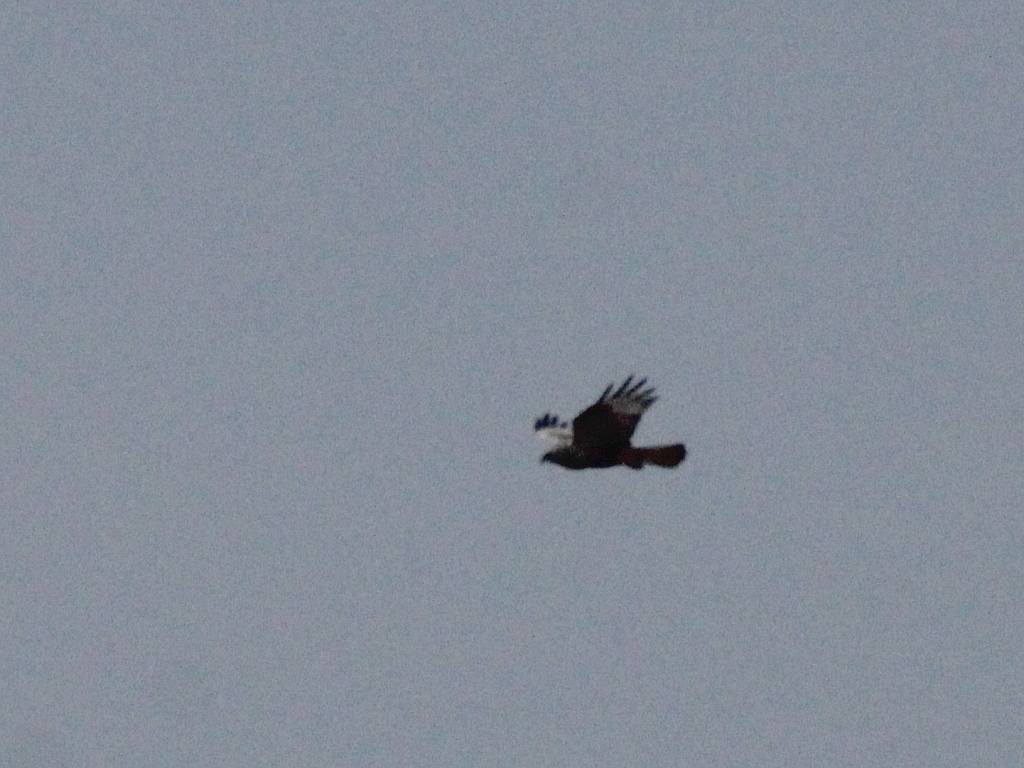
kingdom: Animalia
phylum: Chordata
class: Aves
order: Accipitriformes
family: Accipitridae
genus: Buteo
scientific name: Buteo lagopus
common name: Rough-legged buzzard
